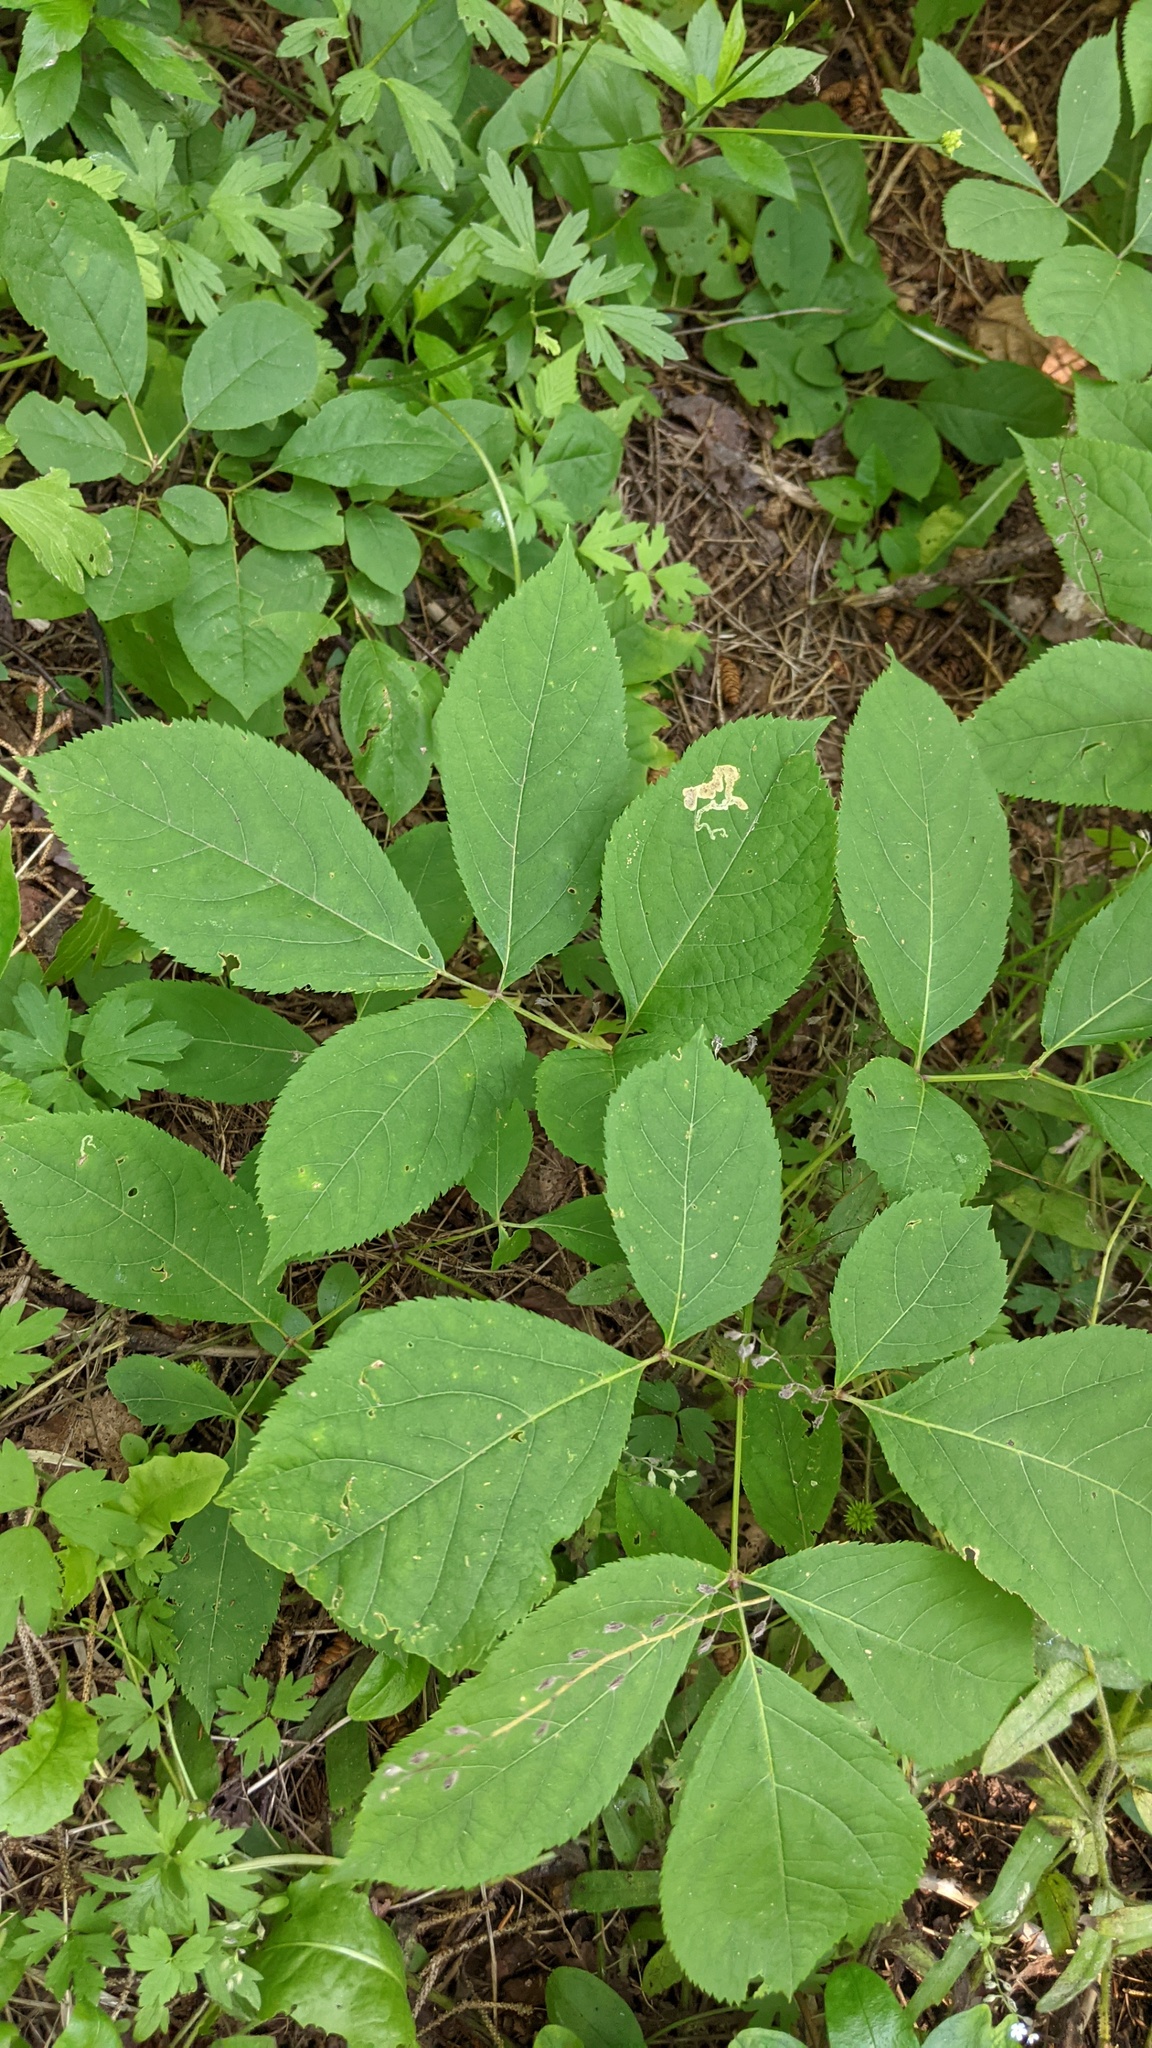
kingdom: Plantae
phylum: Tracheophyta
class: Magnoliopsida
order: Apiales
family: Araliaceae
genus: Aralia
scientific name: Aralia nudicaulis
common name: Wild sarsaparilla
